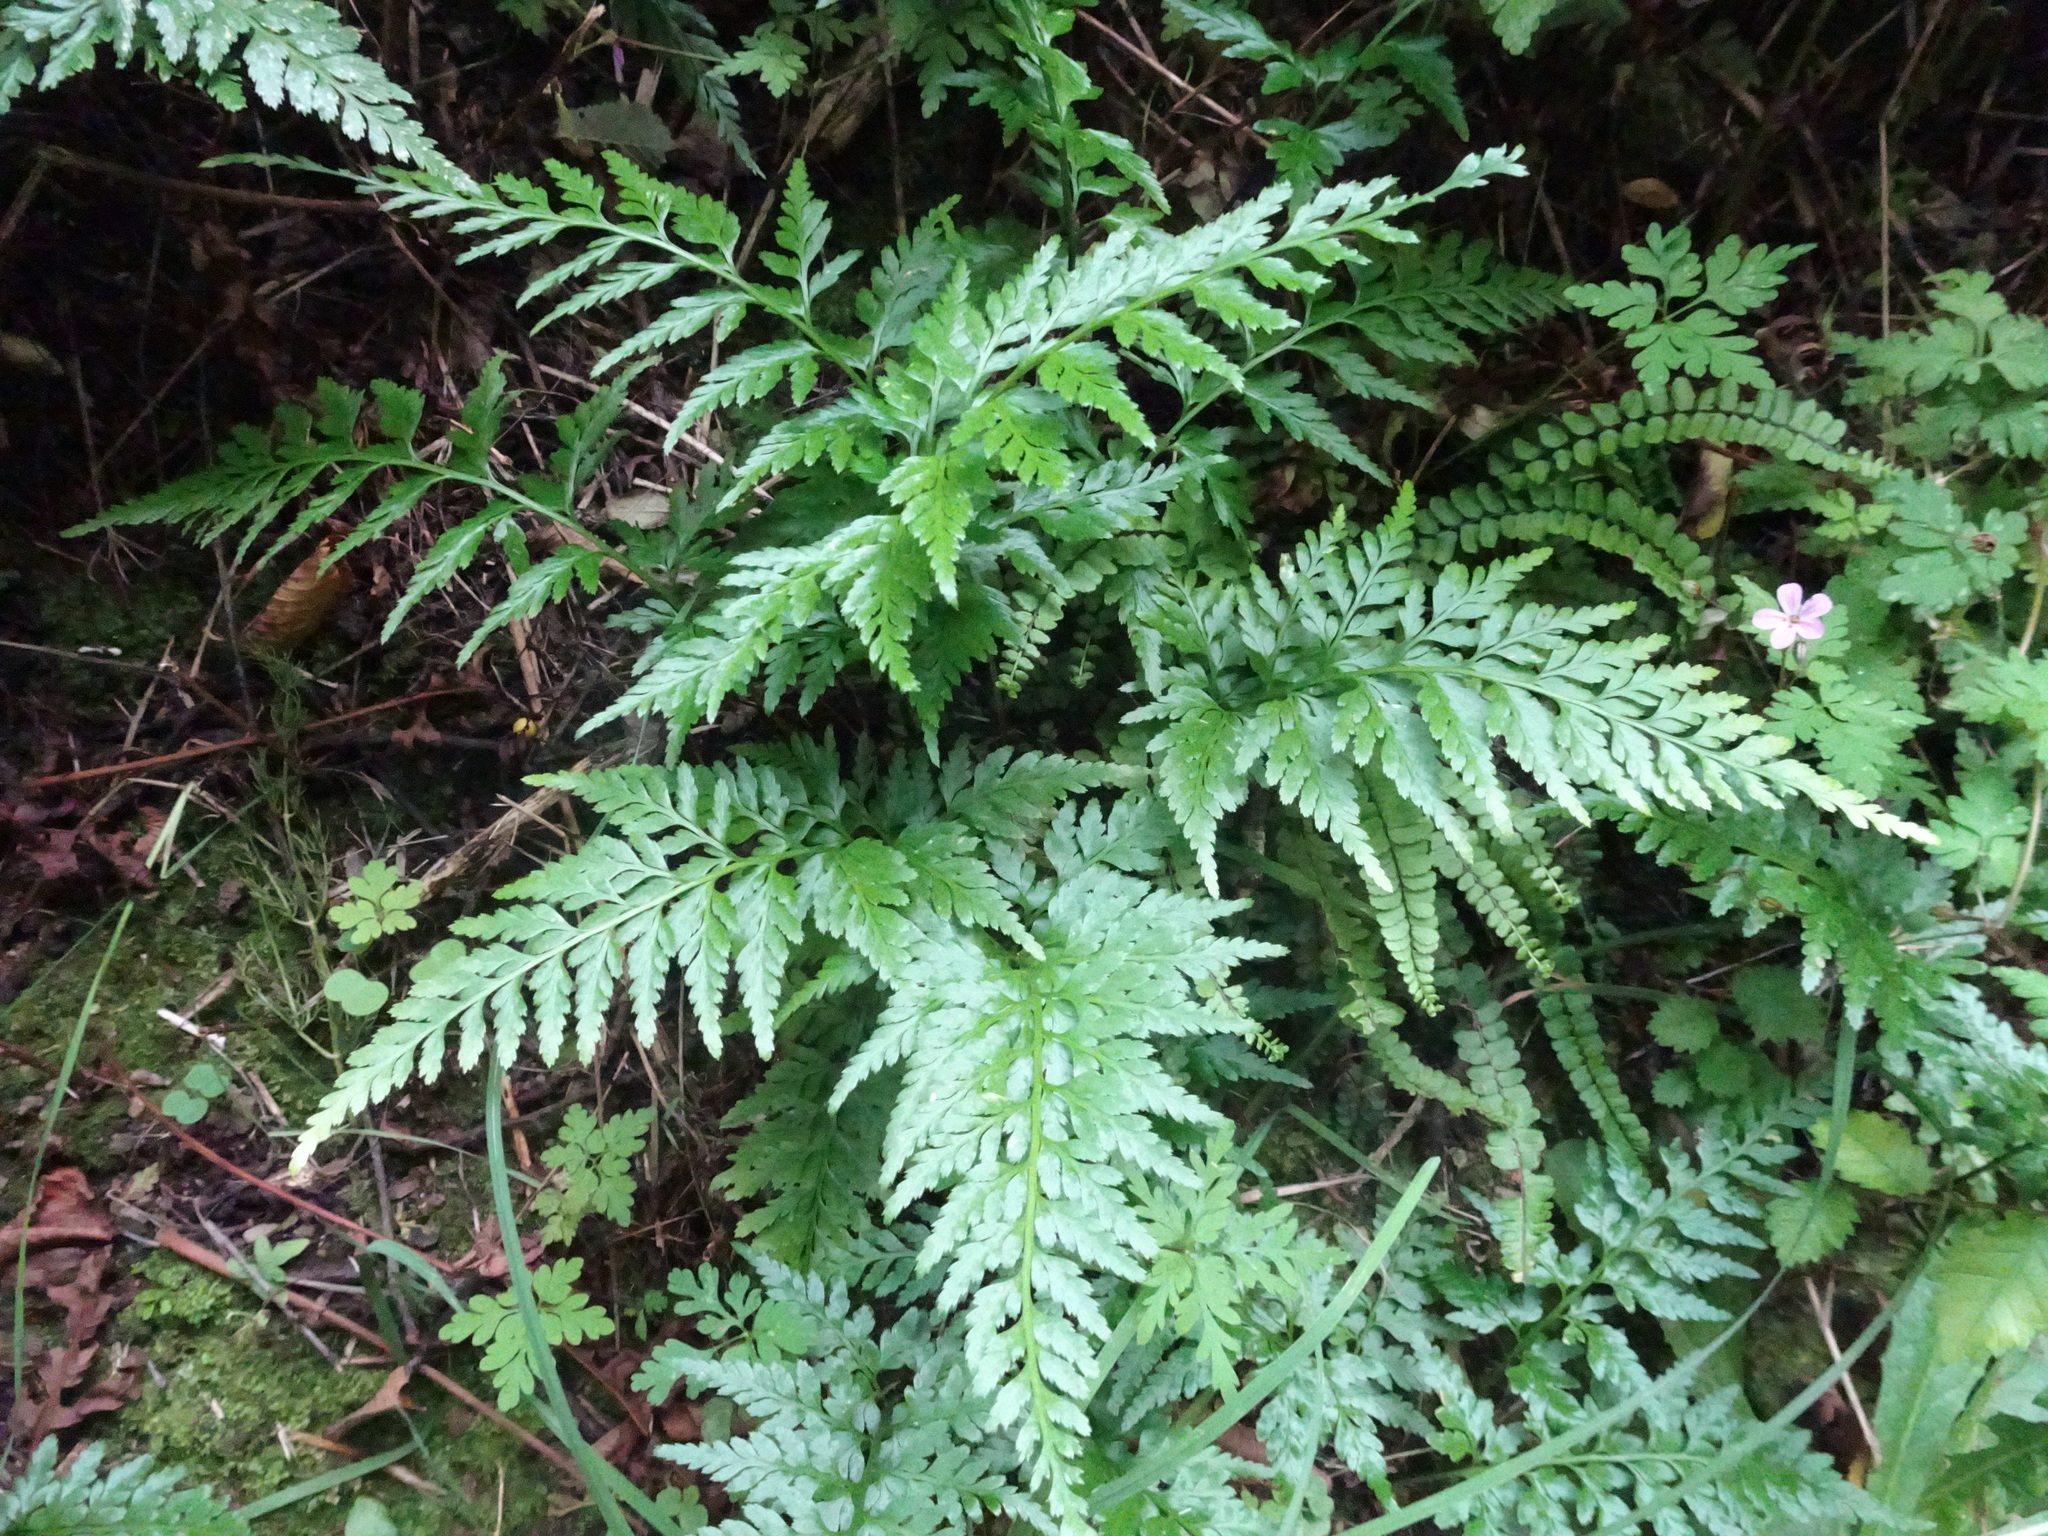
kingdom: Plantae
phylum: Tracheophyta
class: Polypodiopsida
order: Polypodiales
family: Aspleniaceae
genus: Asplenium
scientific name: Asplenium adiantum-nigrum
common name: Black spleenwort
